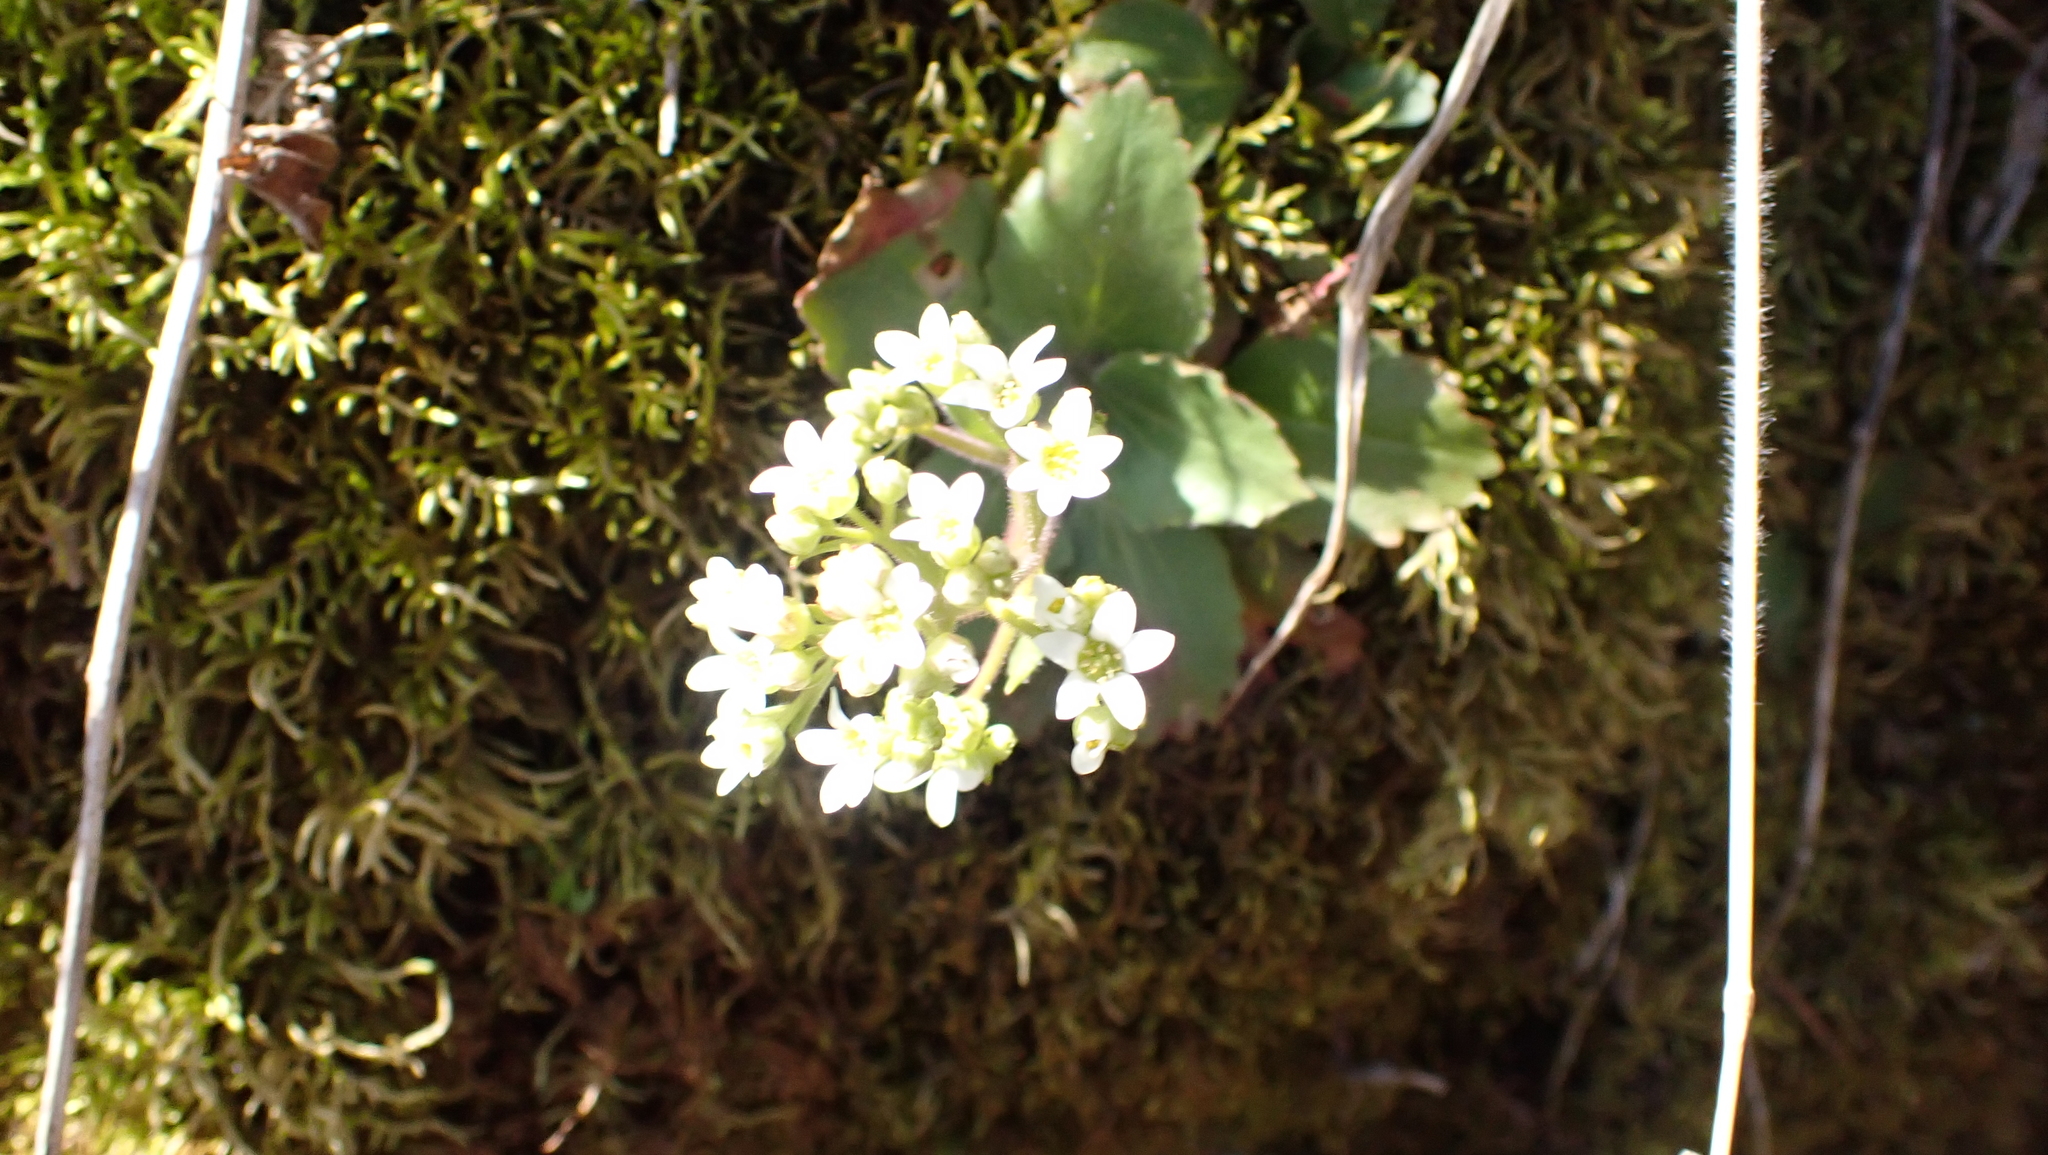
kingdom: Plantae
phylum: Tracheophyta
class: Magnoliopsida
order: Saxifragales
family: Saxifragaceae
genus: Micranthes
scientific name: Micranthes virginiensis
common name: Early saxifrage
